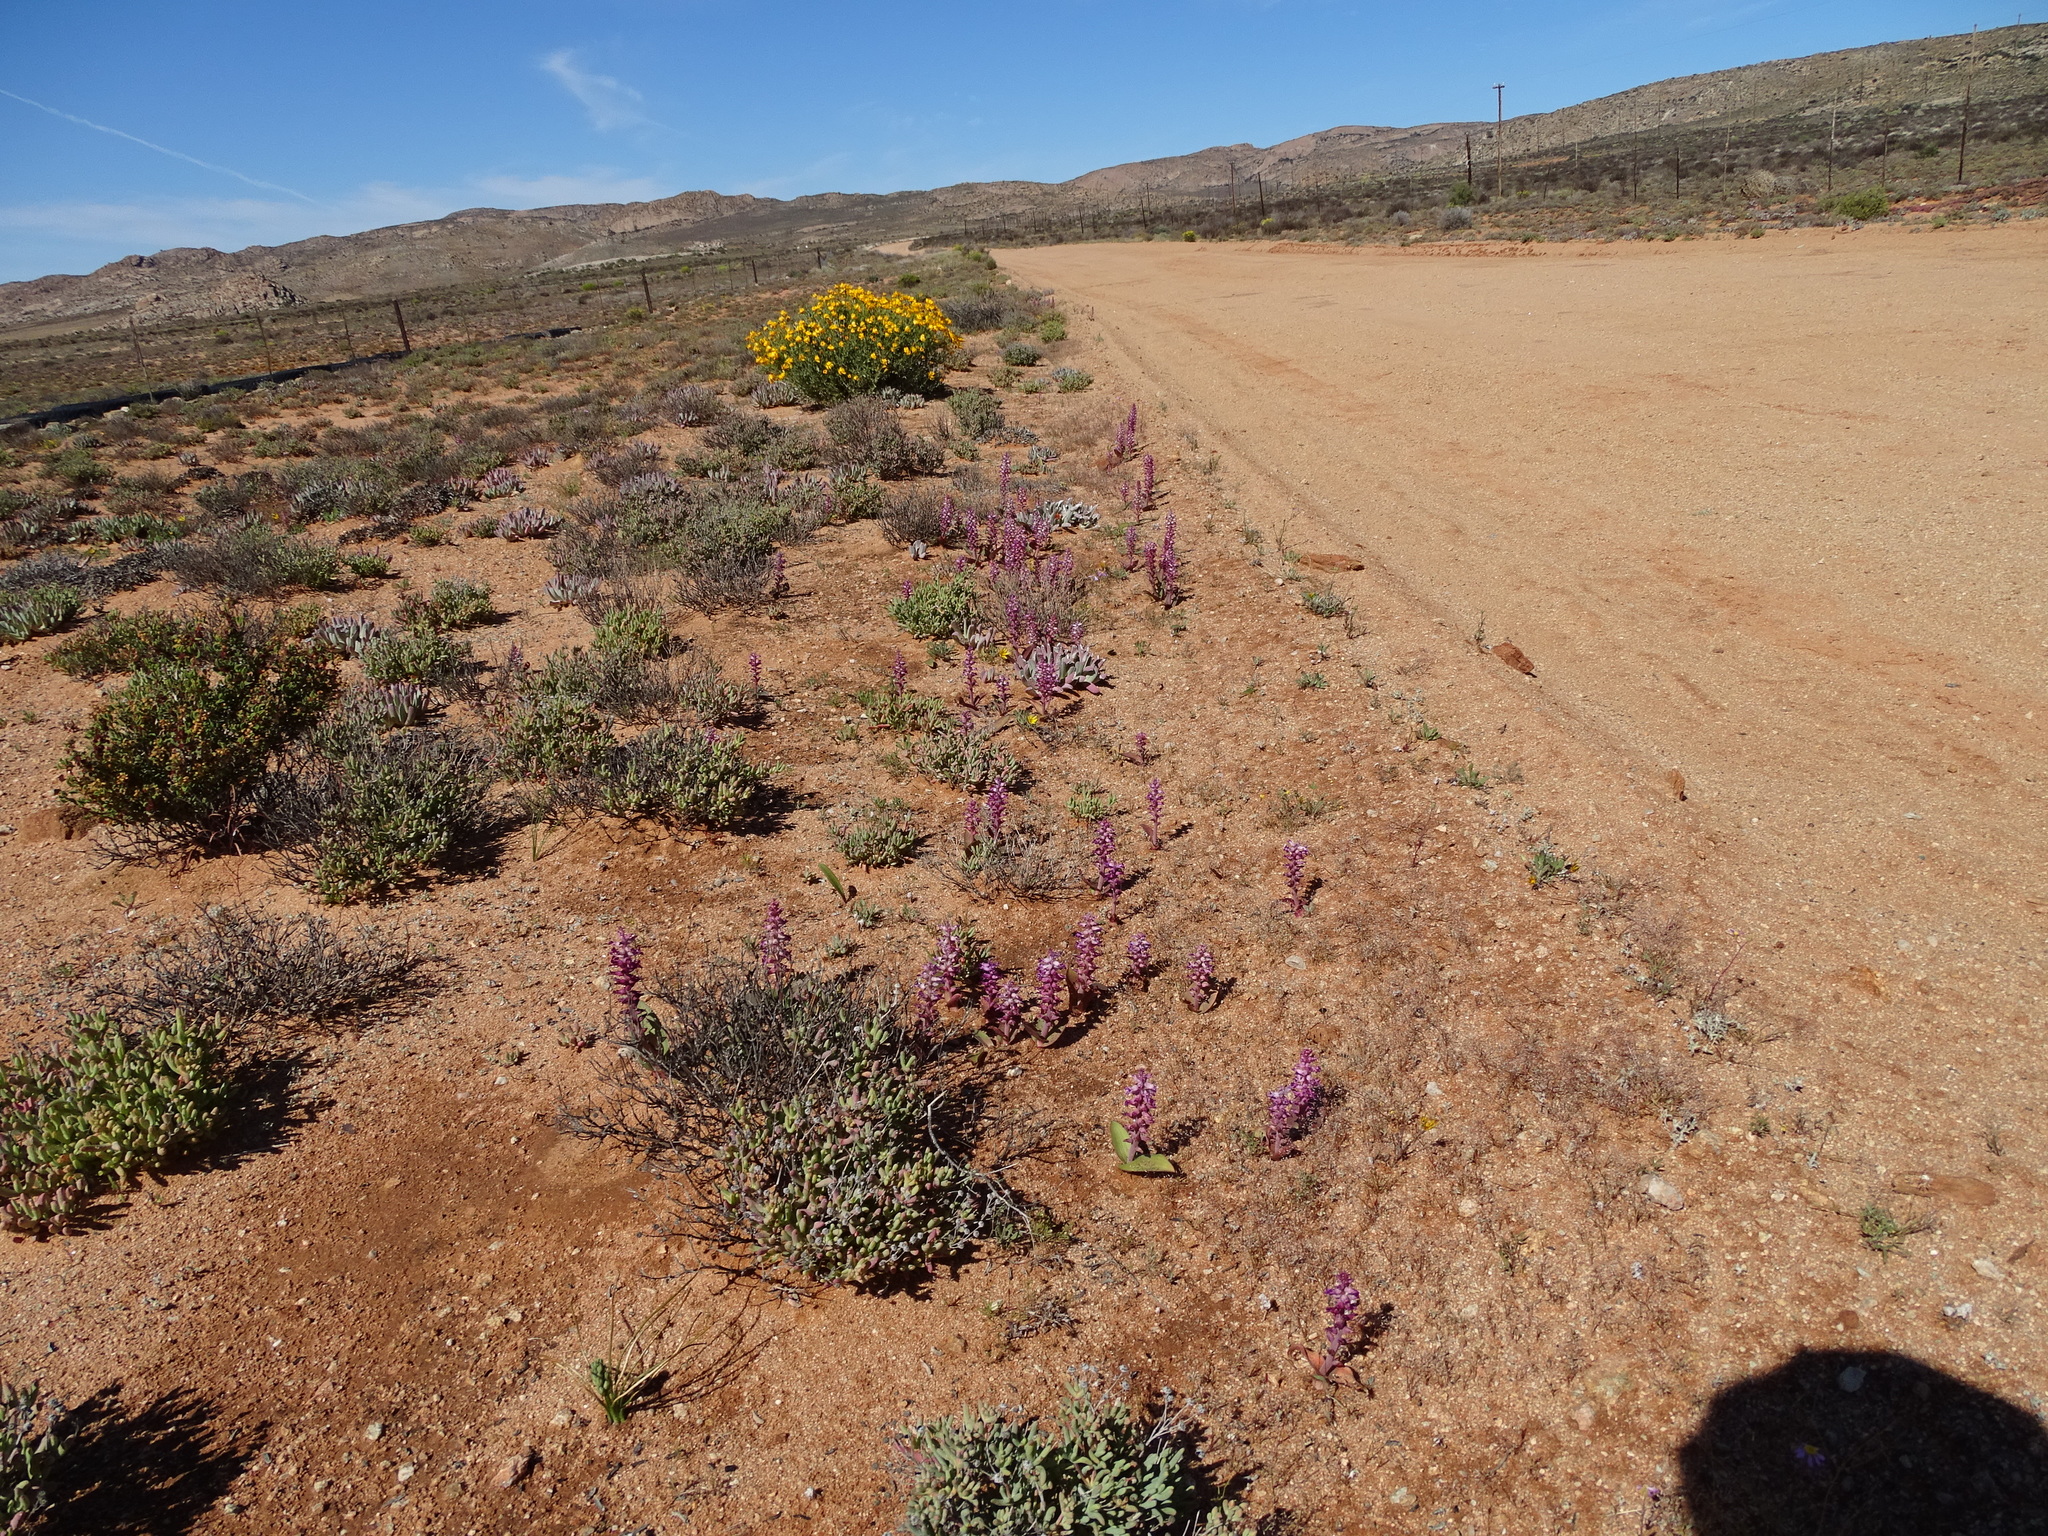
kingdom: Plantae
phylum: Tracheophyta
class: Liliopsida
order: Asparagales
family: Asparagaceae
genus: Lachenalia
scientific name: Lachenalia carnosa
